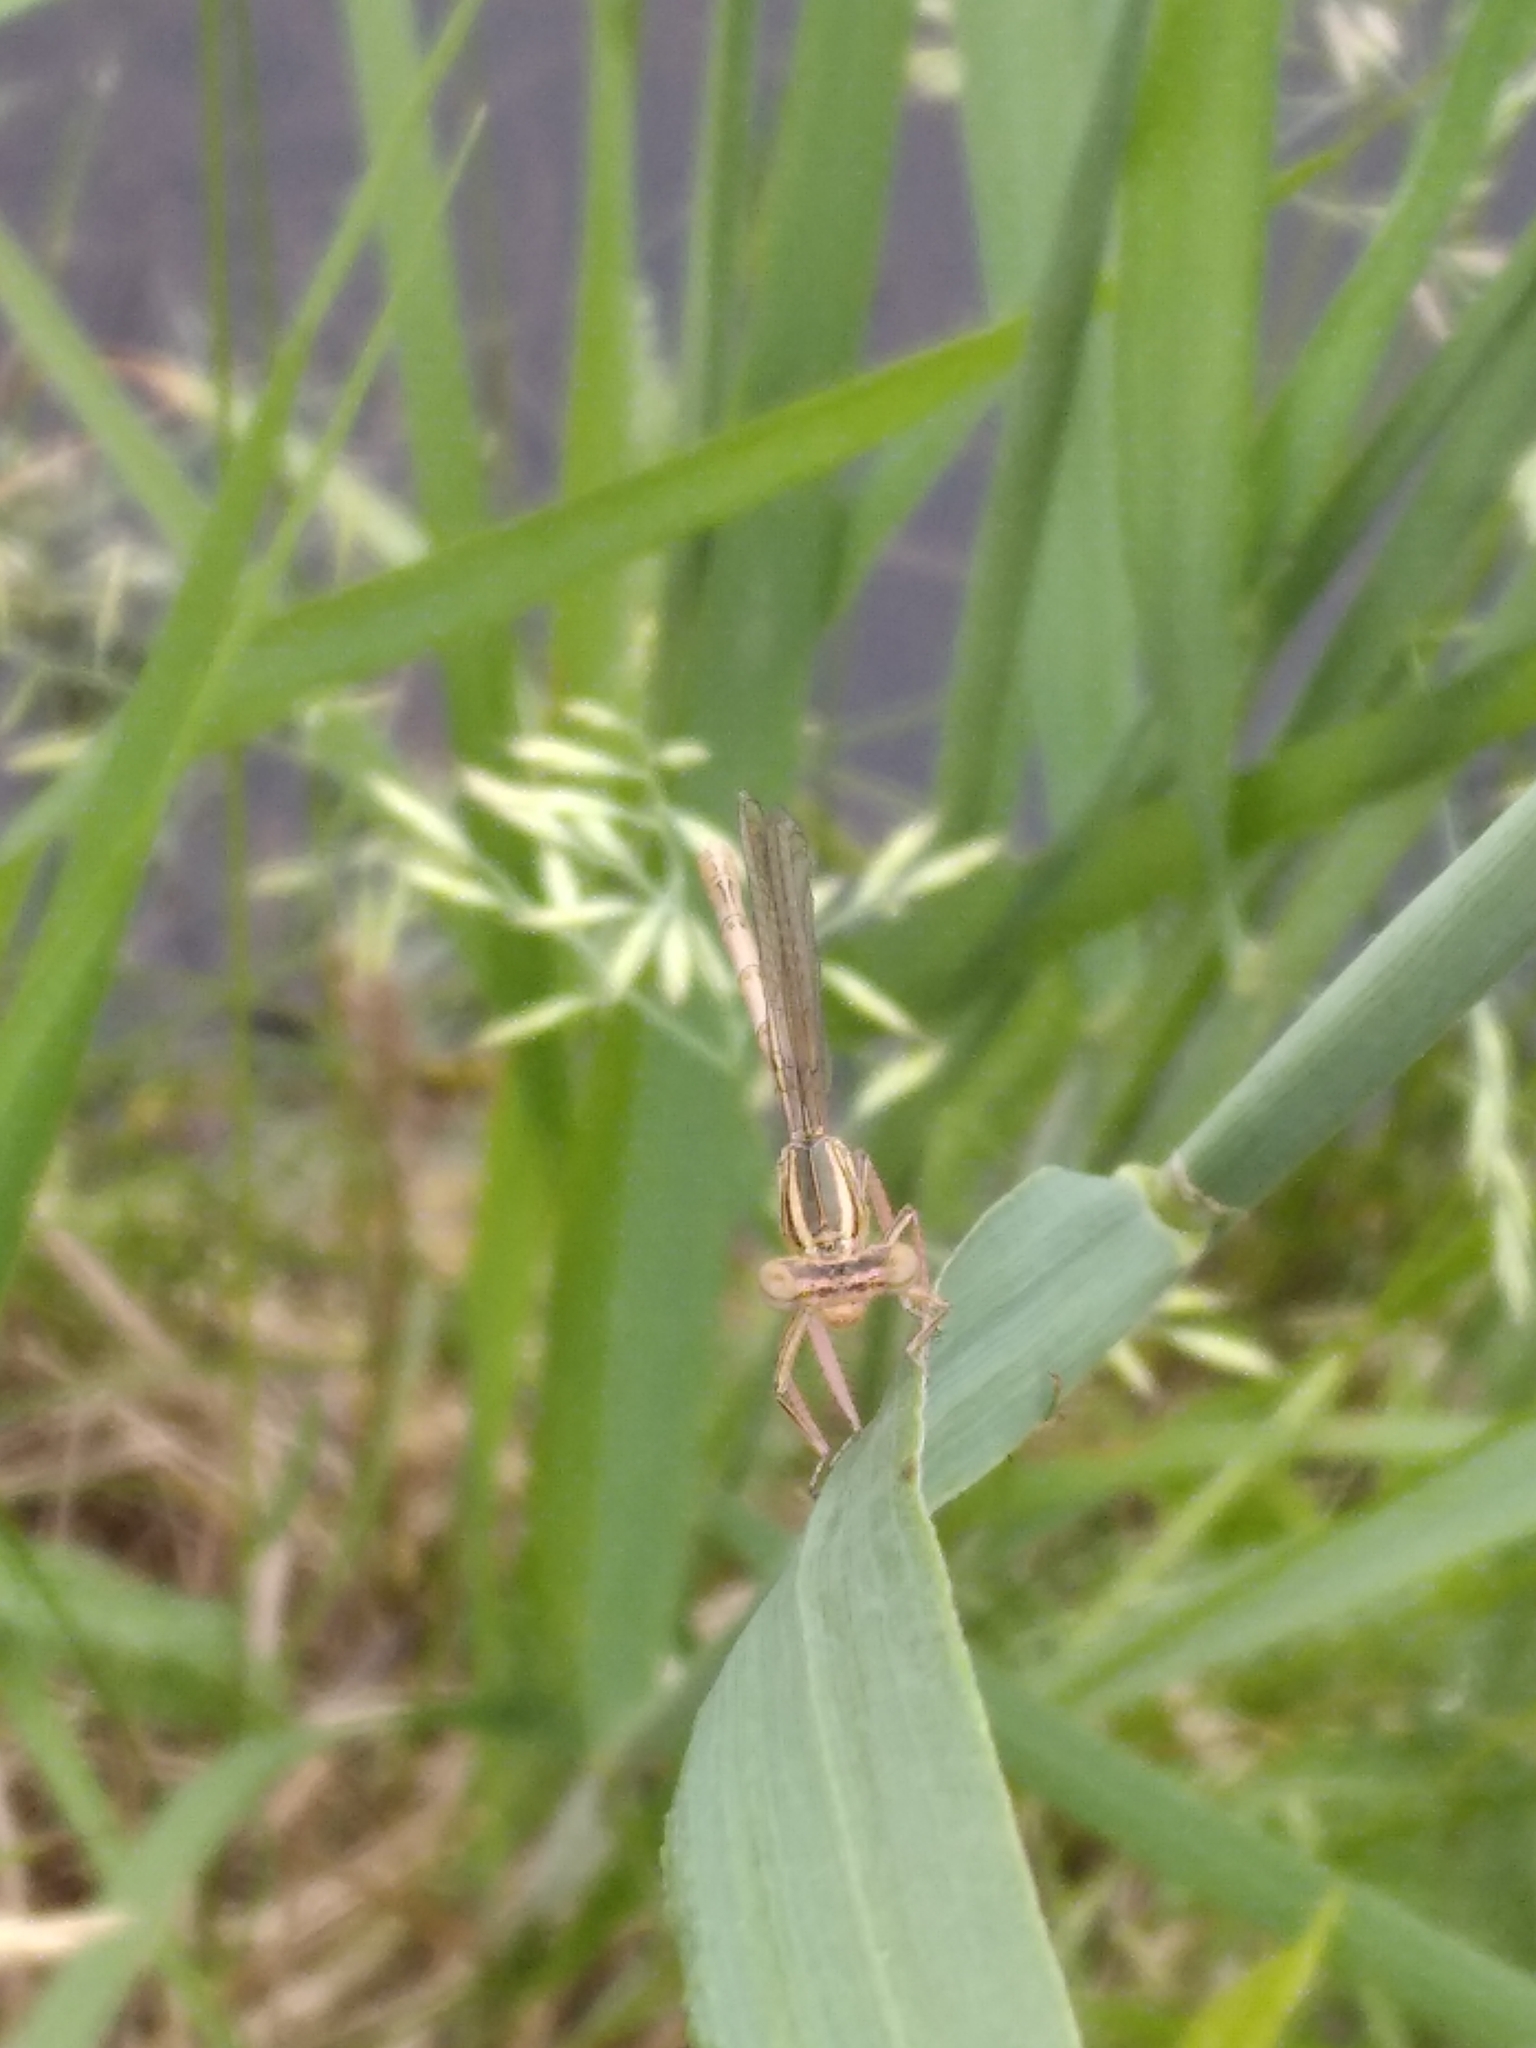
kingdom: Animalia
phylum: Arthropoda
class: Insecta
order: Odonata
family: Platycnemididae
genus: Platycnemis
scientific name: Platycnemis pennipes
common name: White-legged damselfly
